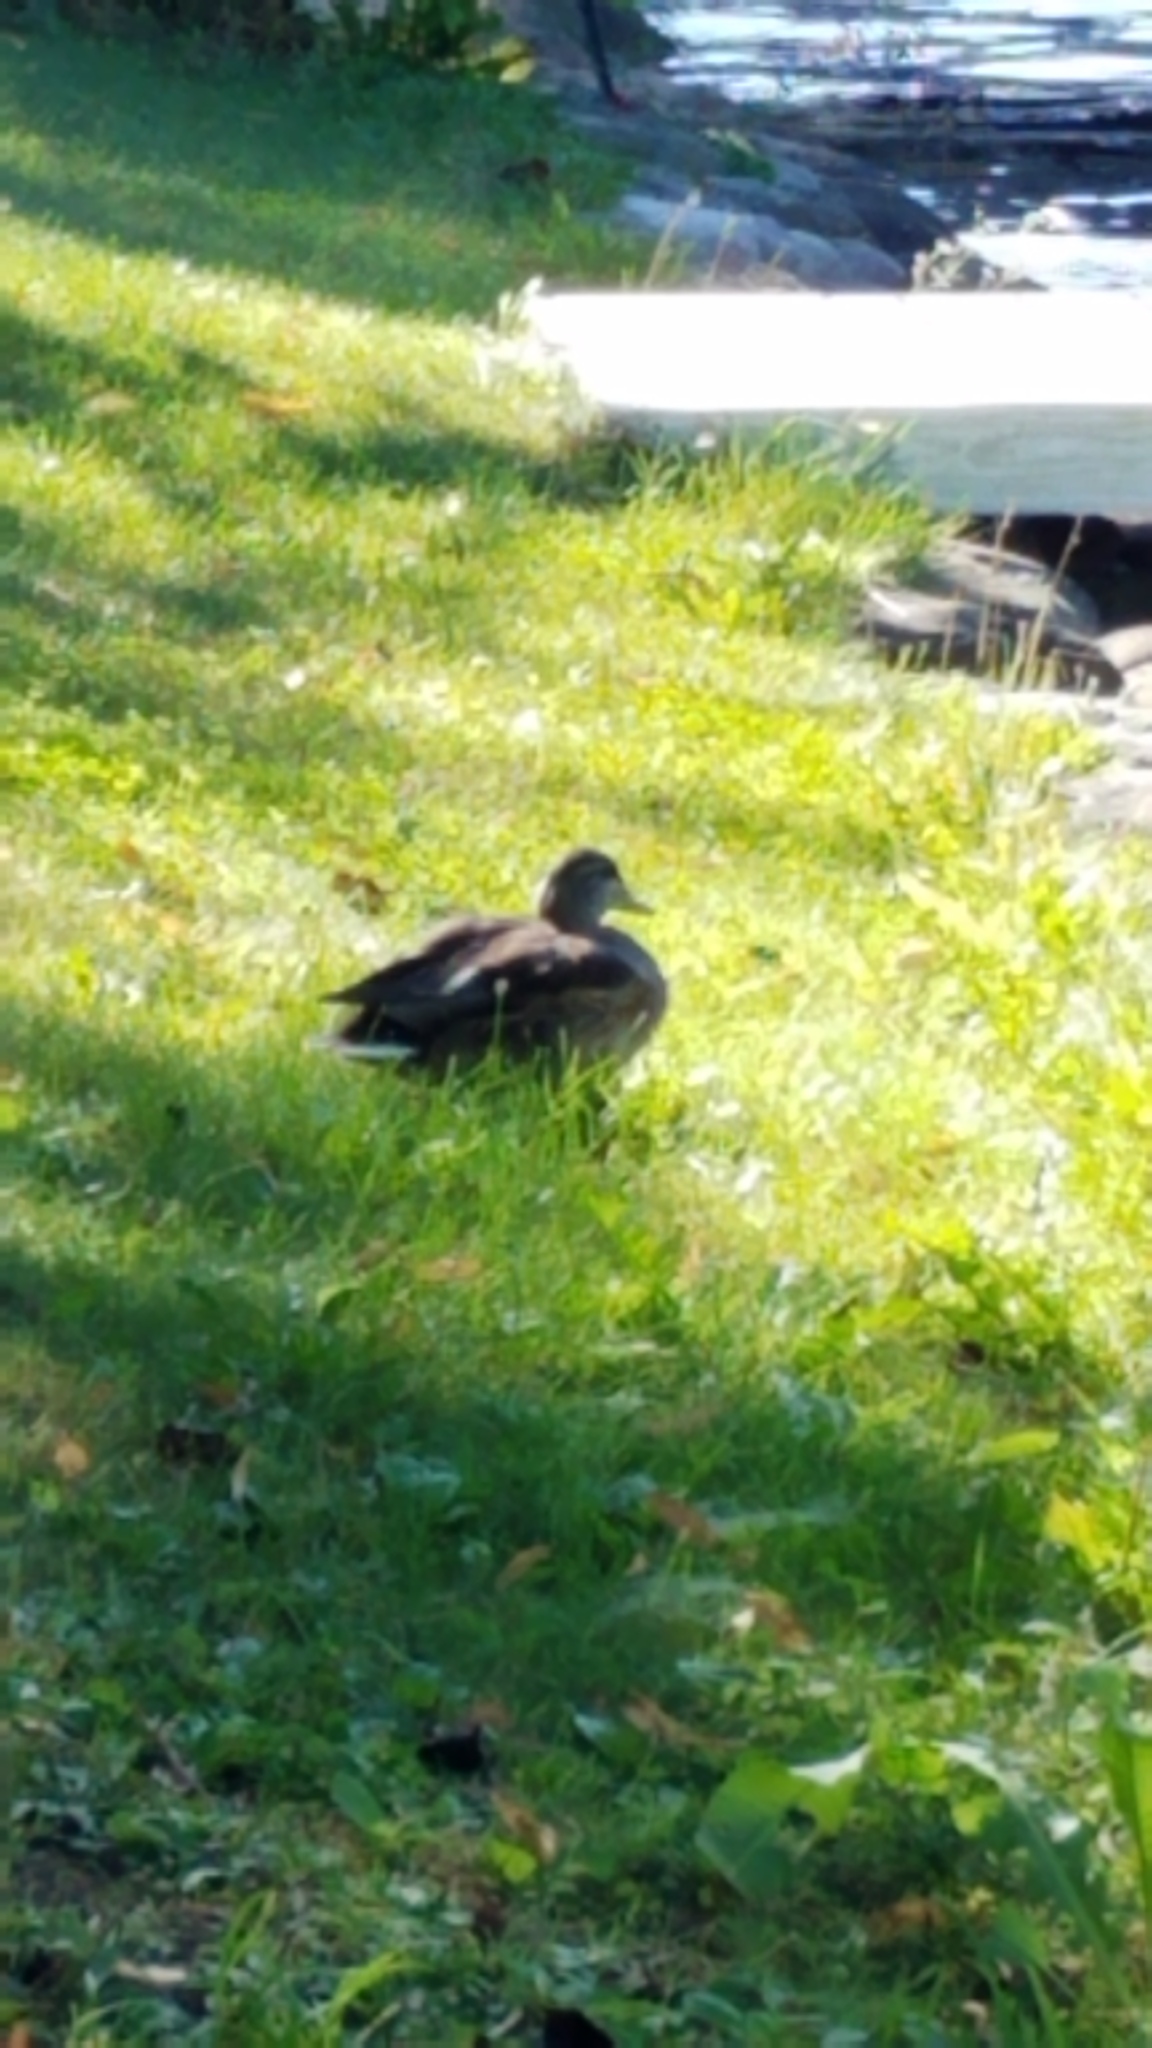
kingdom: Animalia
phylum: Chordata
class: Aves
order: Anseriformes
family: Anatidae
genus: Anas
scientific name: Anas platyrhynchos
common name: Mallard
